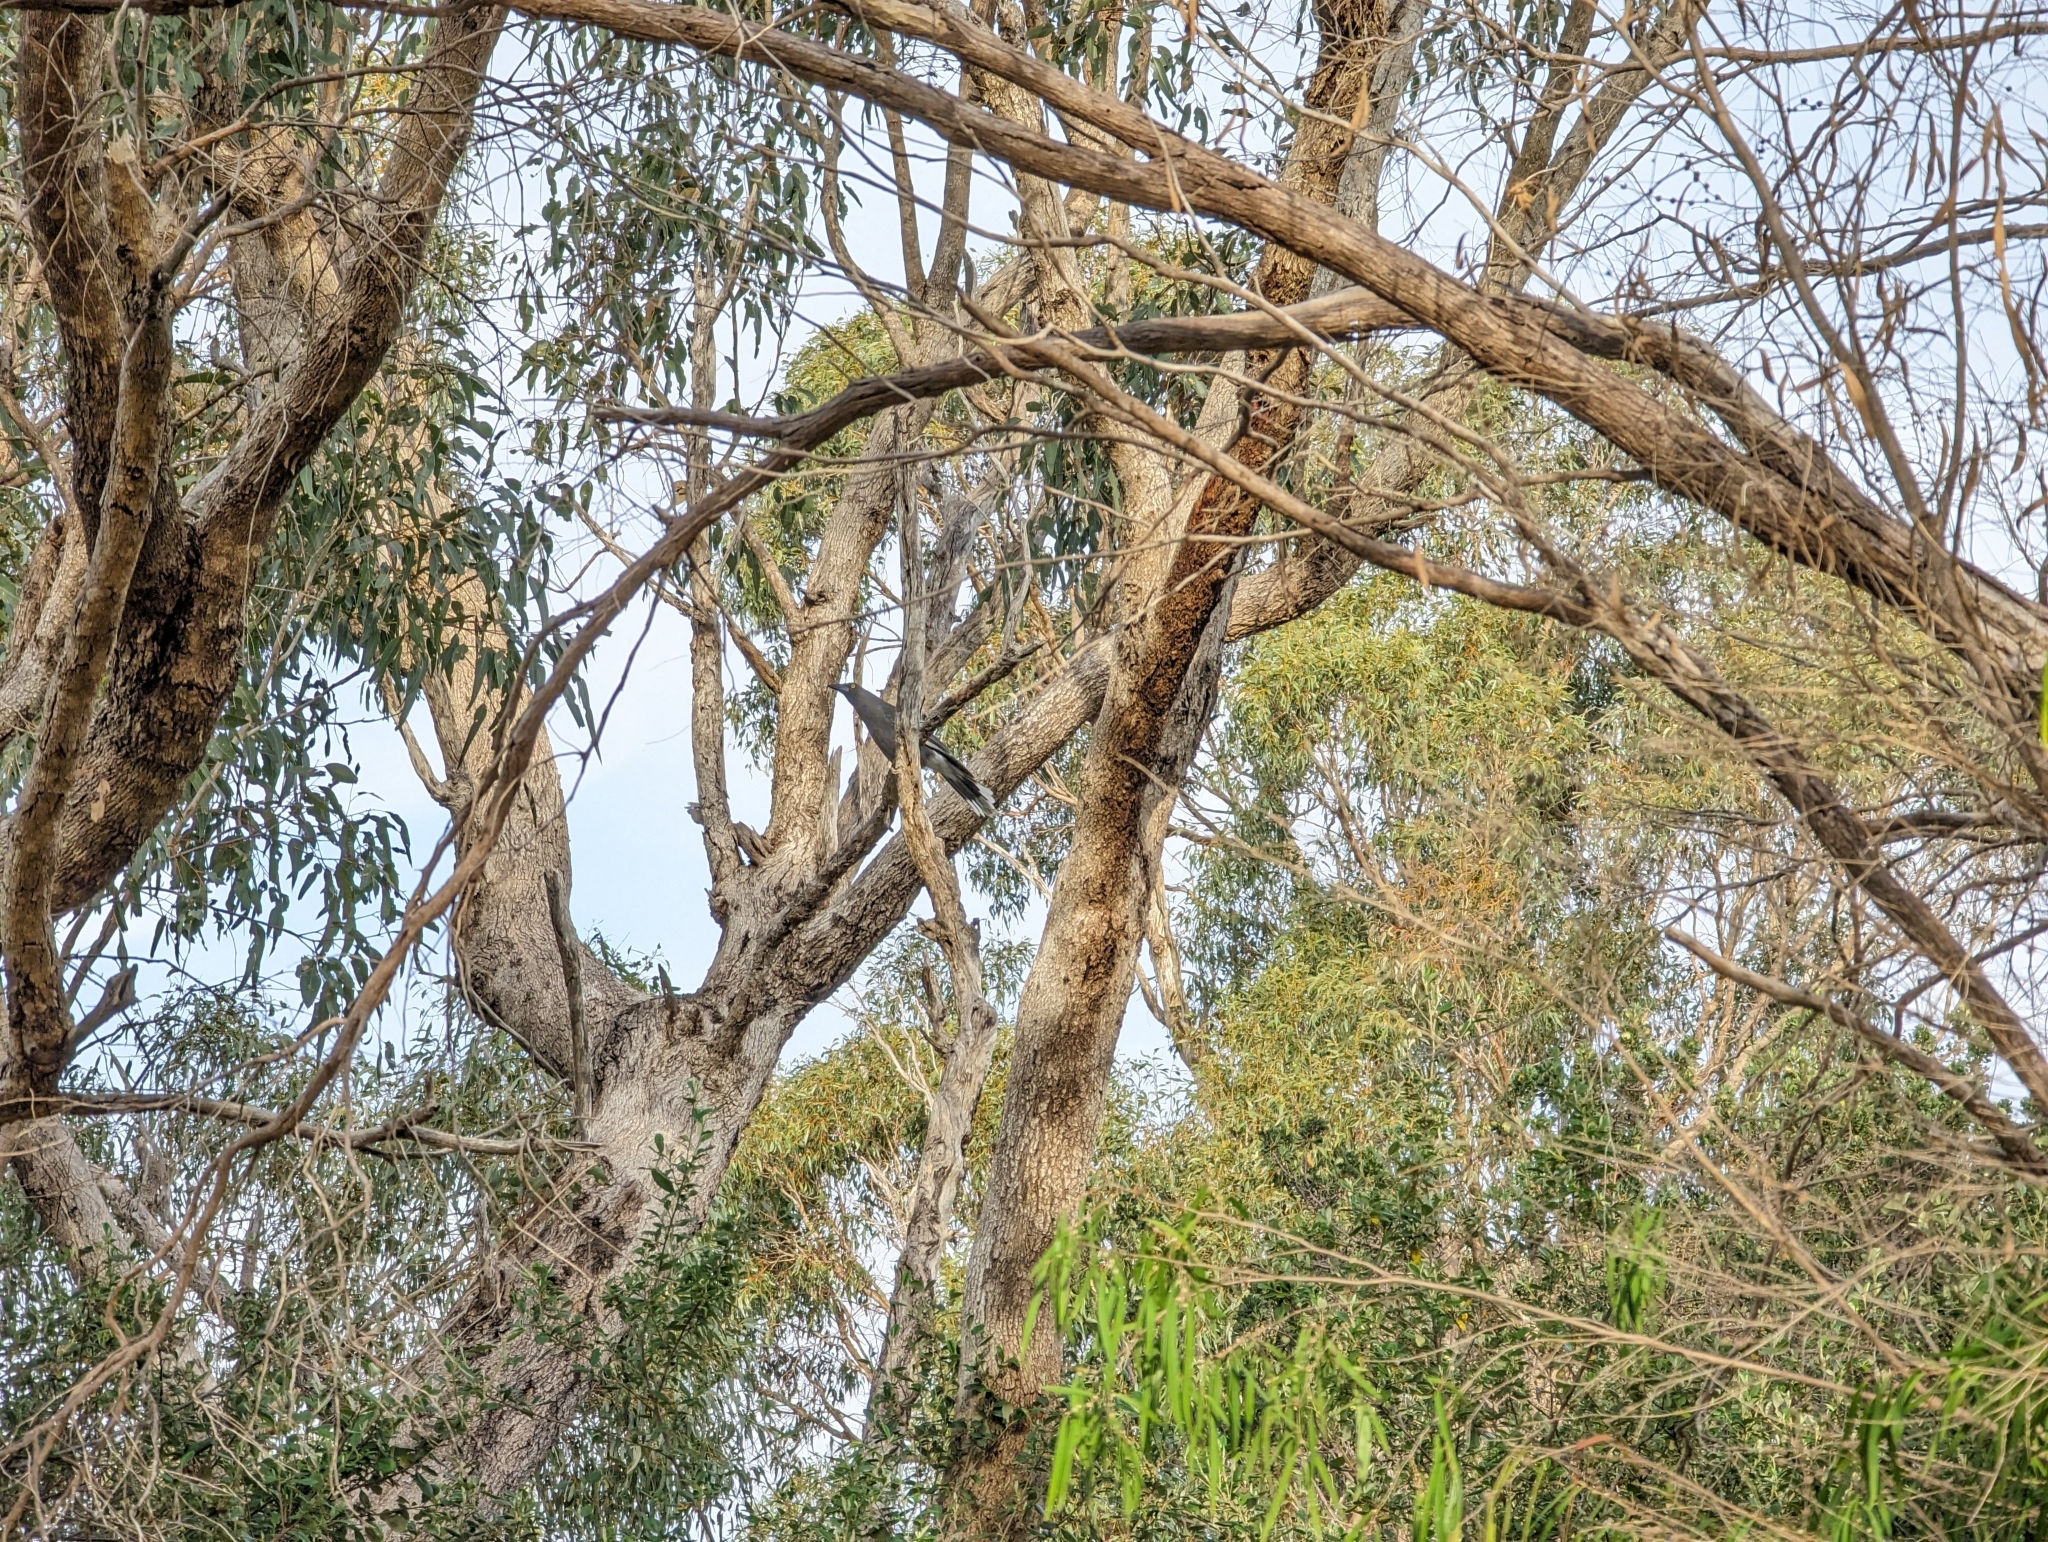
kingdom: Animalia
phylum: Chordata
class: Aves
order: Passeriformes
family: Cracticidae
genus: Strepera
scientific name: Strepera versicolor
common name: Grey currawong
